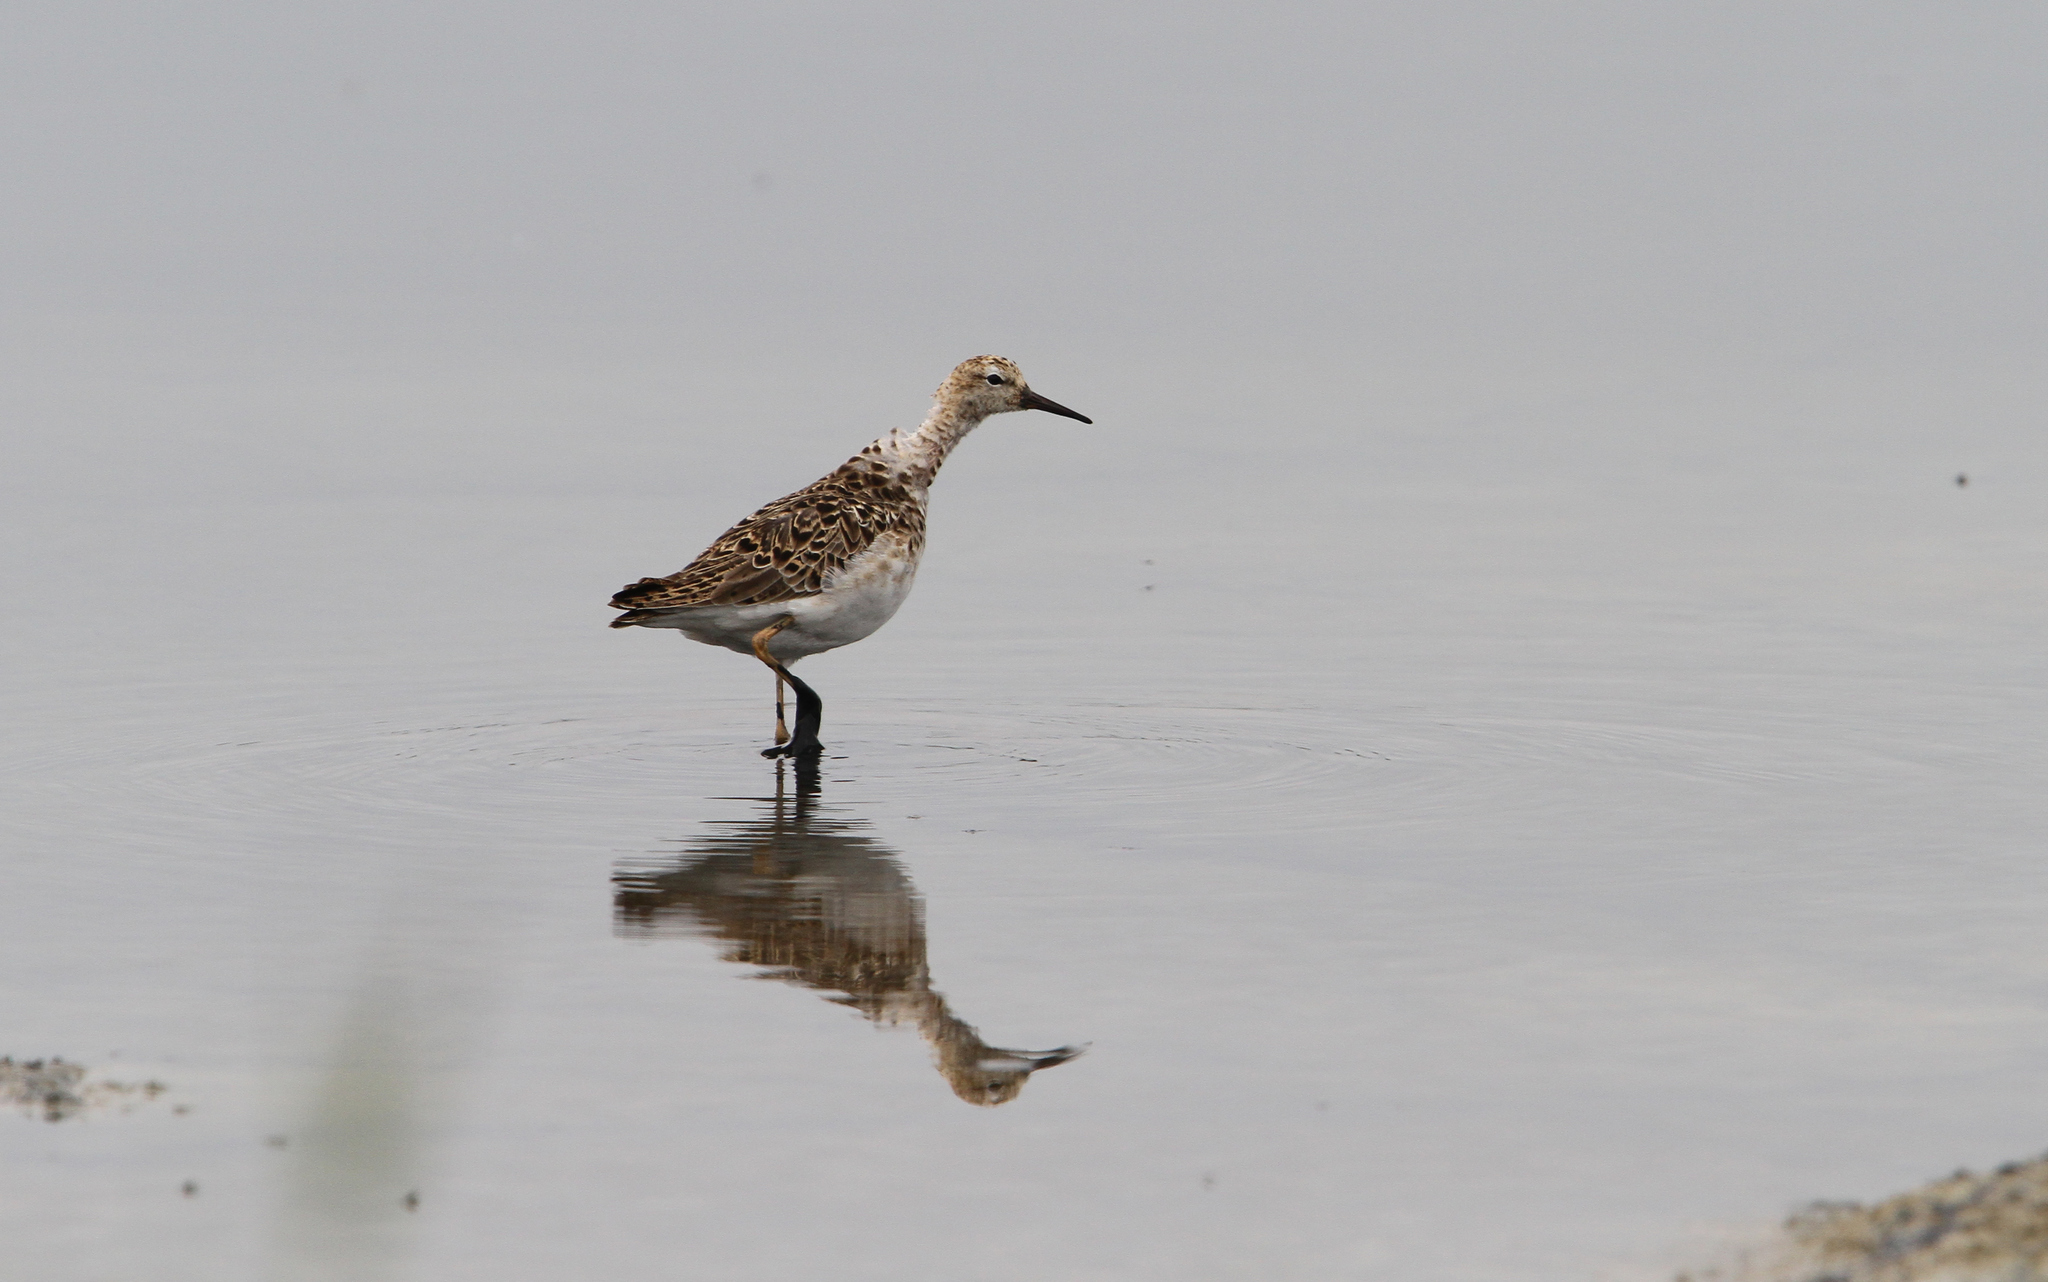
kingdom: Animalia
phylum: Chordata
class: Aves
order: Charadriiformes
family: Scolopacidae
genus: Calidris
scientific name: Calidris pugnax
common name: Ruff
